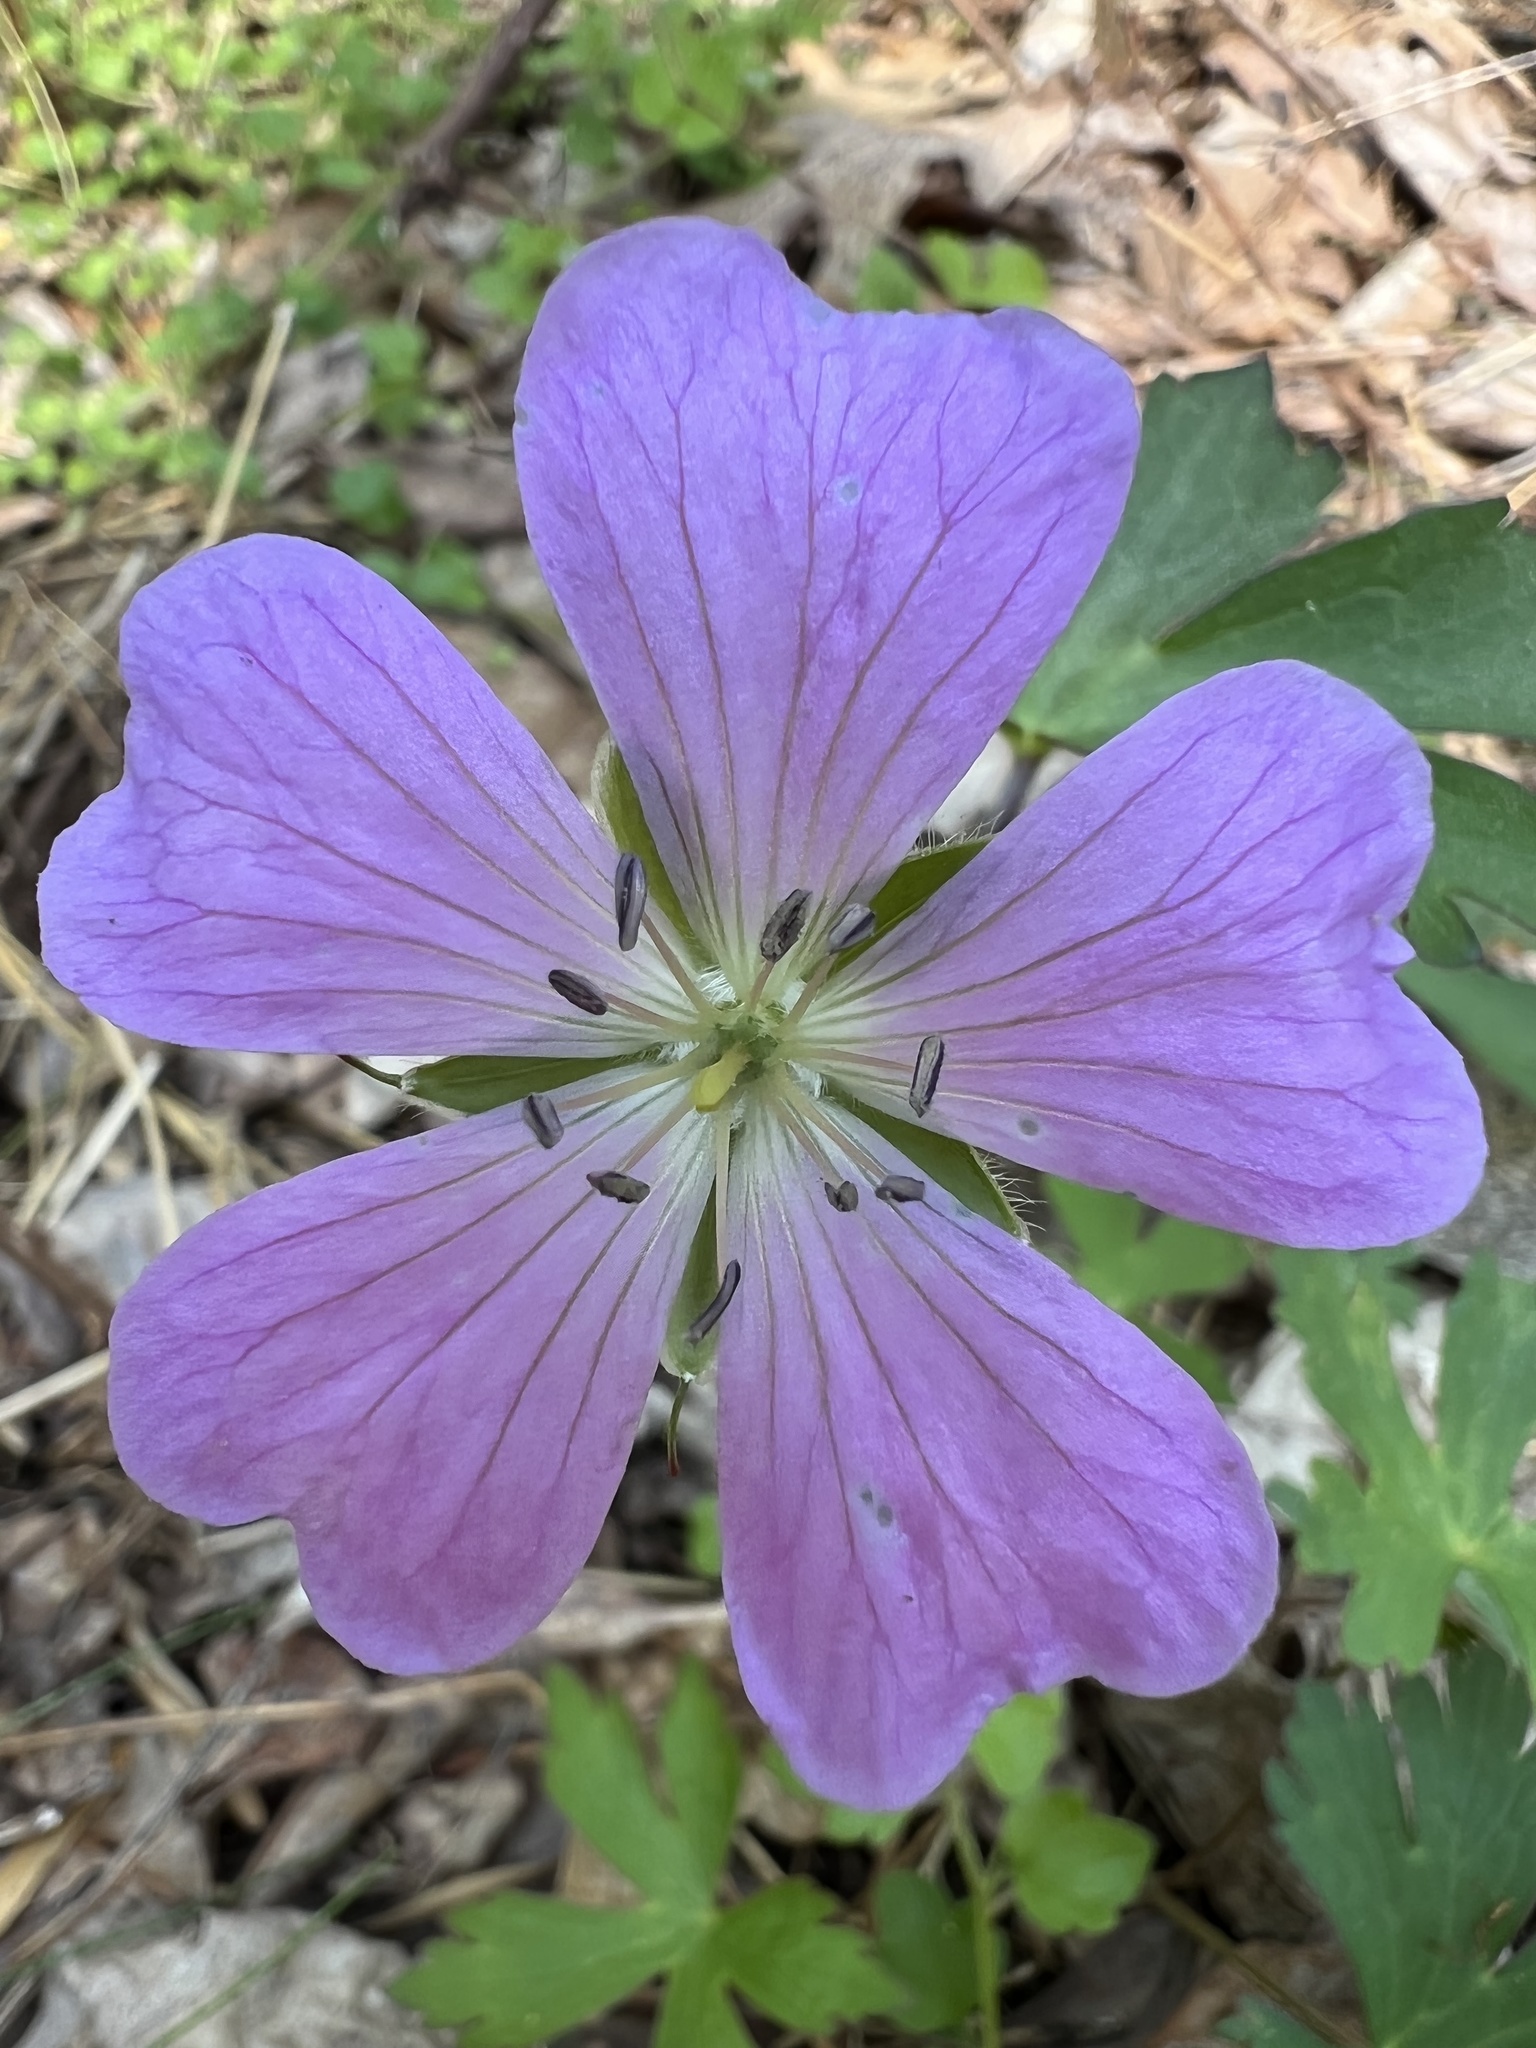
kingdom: Plantae
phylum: Tracheophyta
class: Magnoliopsida
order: Geraniales
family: Geraniaceae
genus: Geranium
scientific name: Geranium maculatum
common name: Spotted geranium
